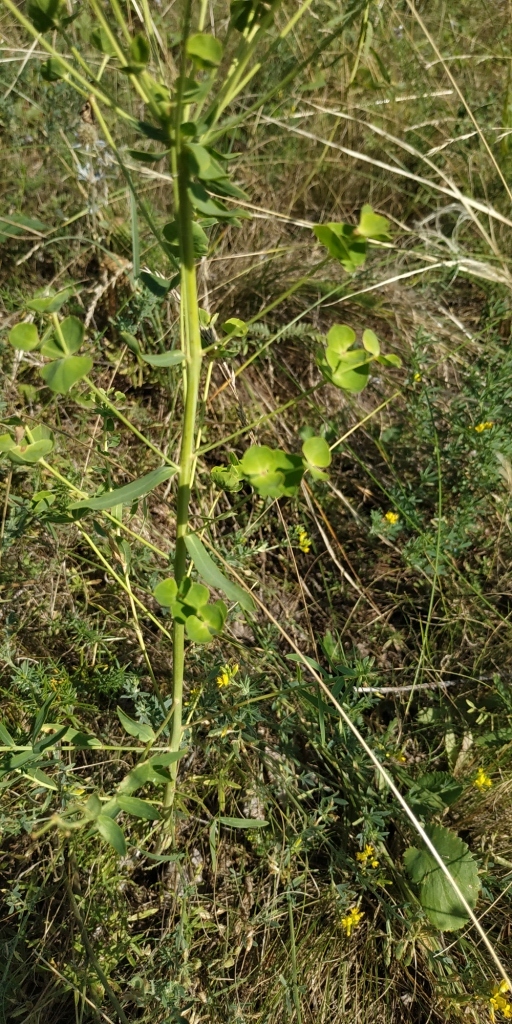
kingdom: Plantae
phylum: Tracheophyta
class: Magnoliopsida
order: Malpighiales
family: Euphorbiaceae
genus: Euphorbia
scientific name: Euphorbia borealis
